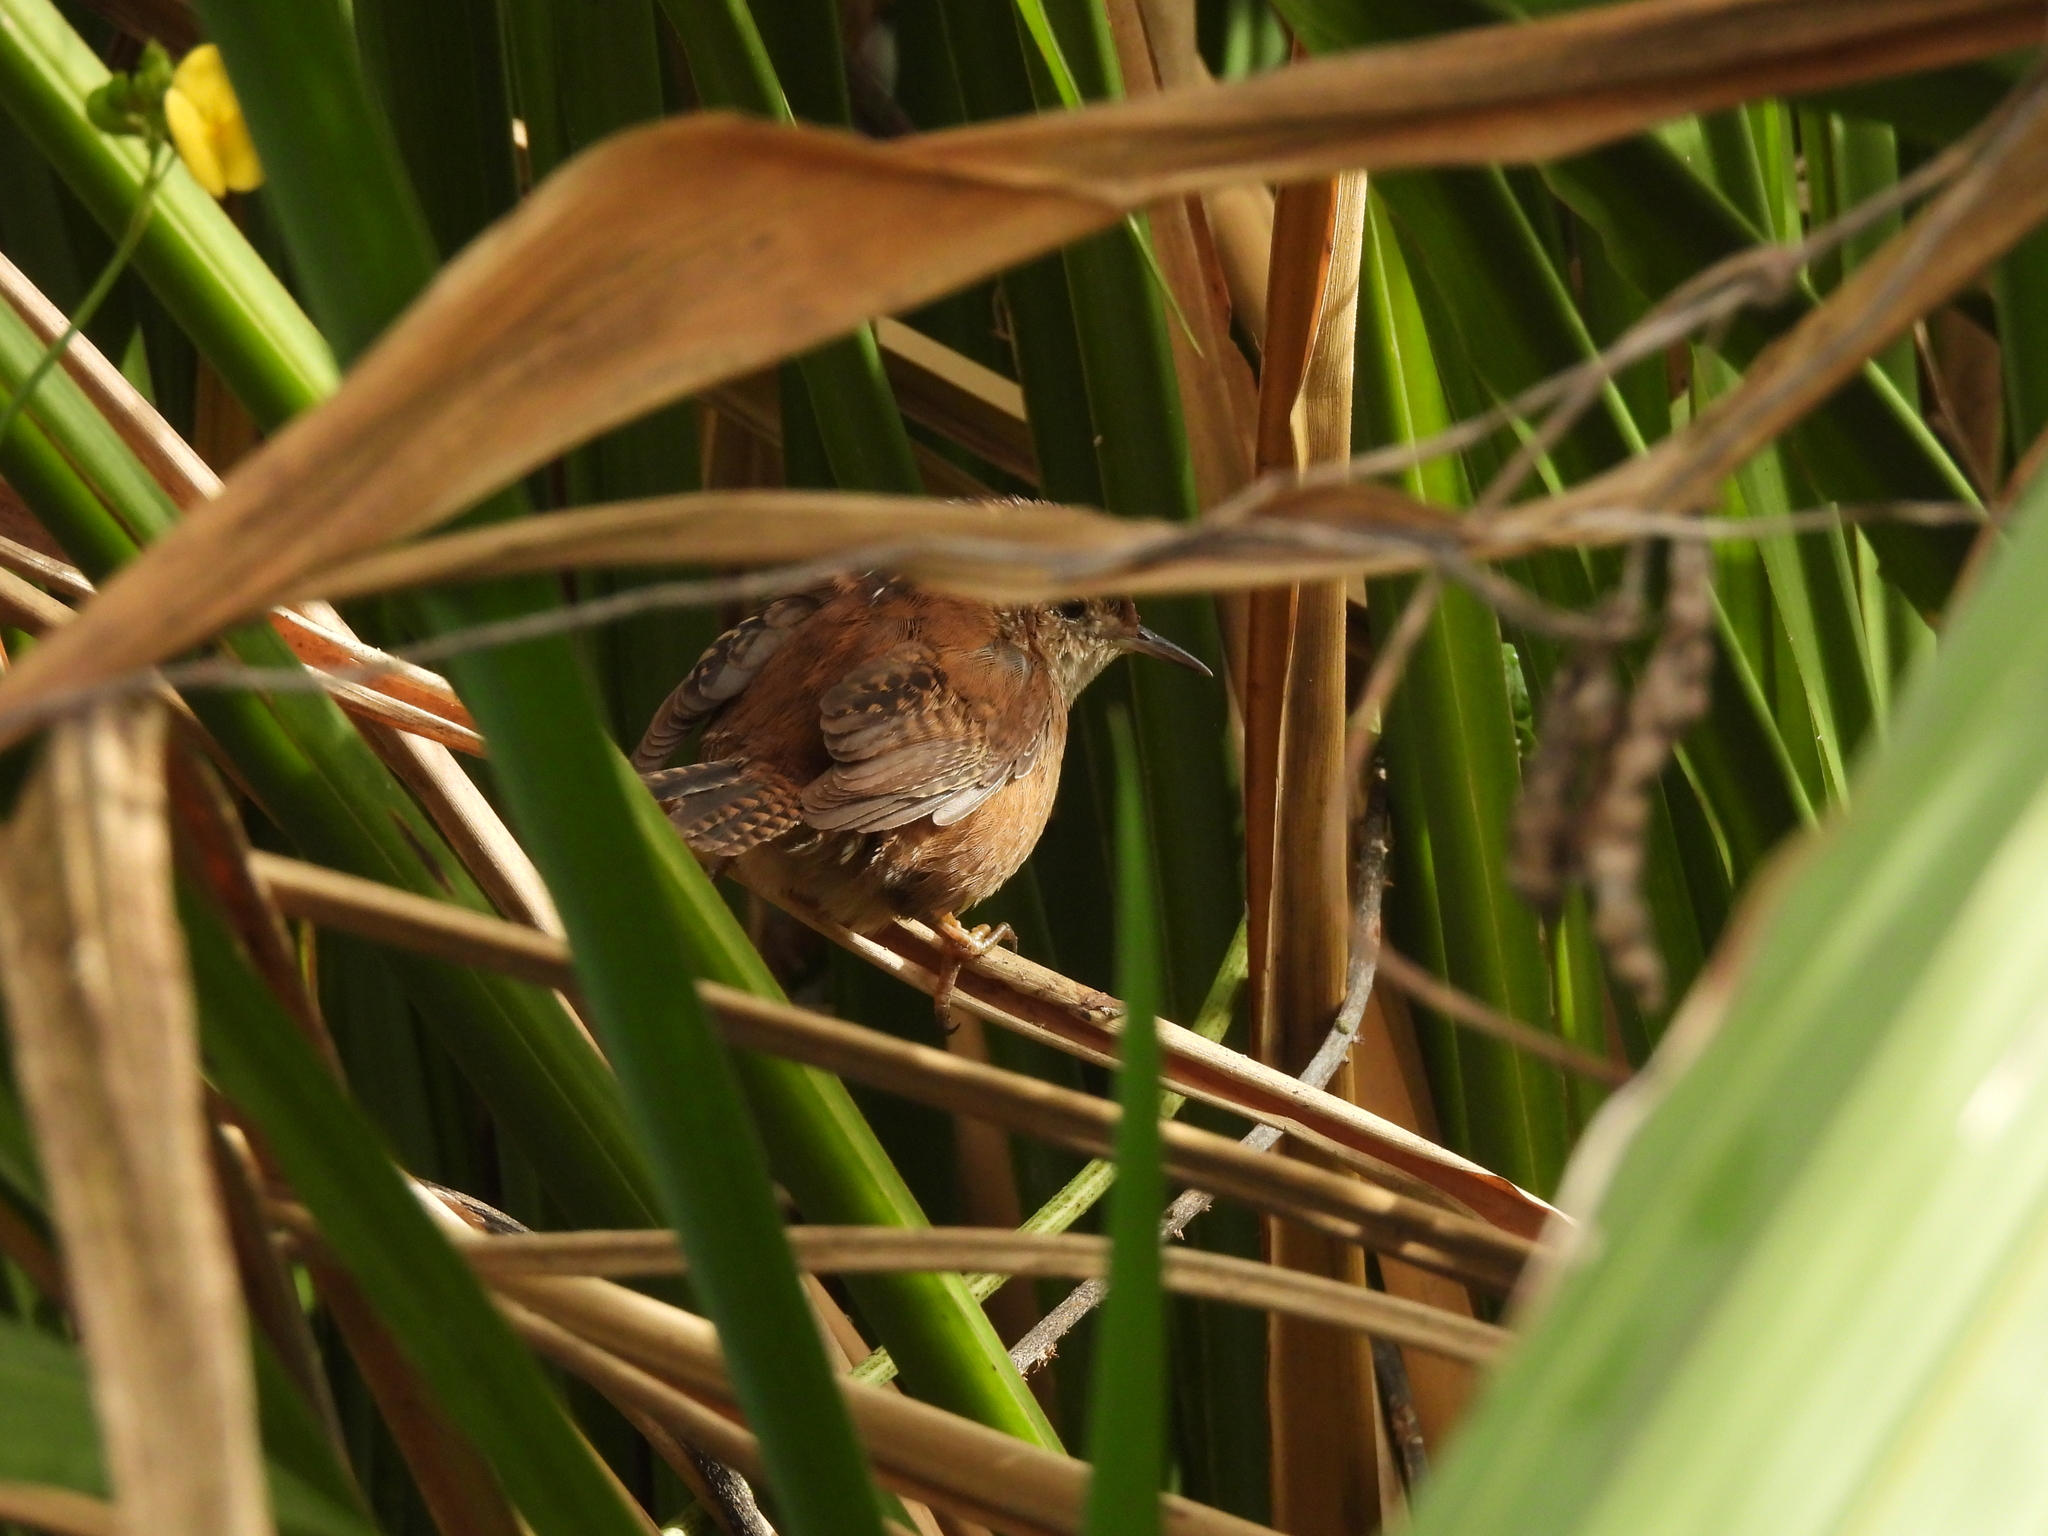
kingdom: Animalia
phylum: Chordata
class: Aves
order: Passeriformes
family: Troglodytidae
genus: Cistothorus
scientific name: Cistothorus palustris
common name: Marsh wren
